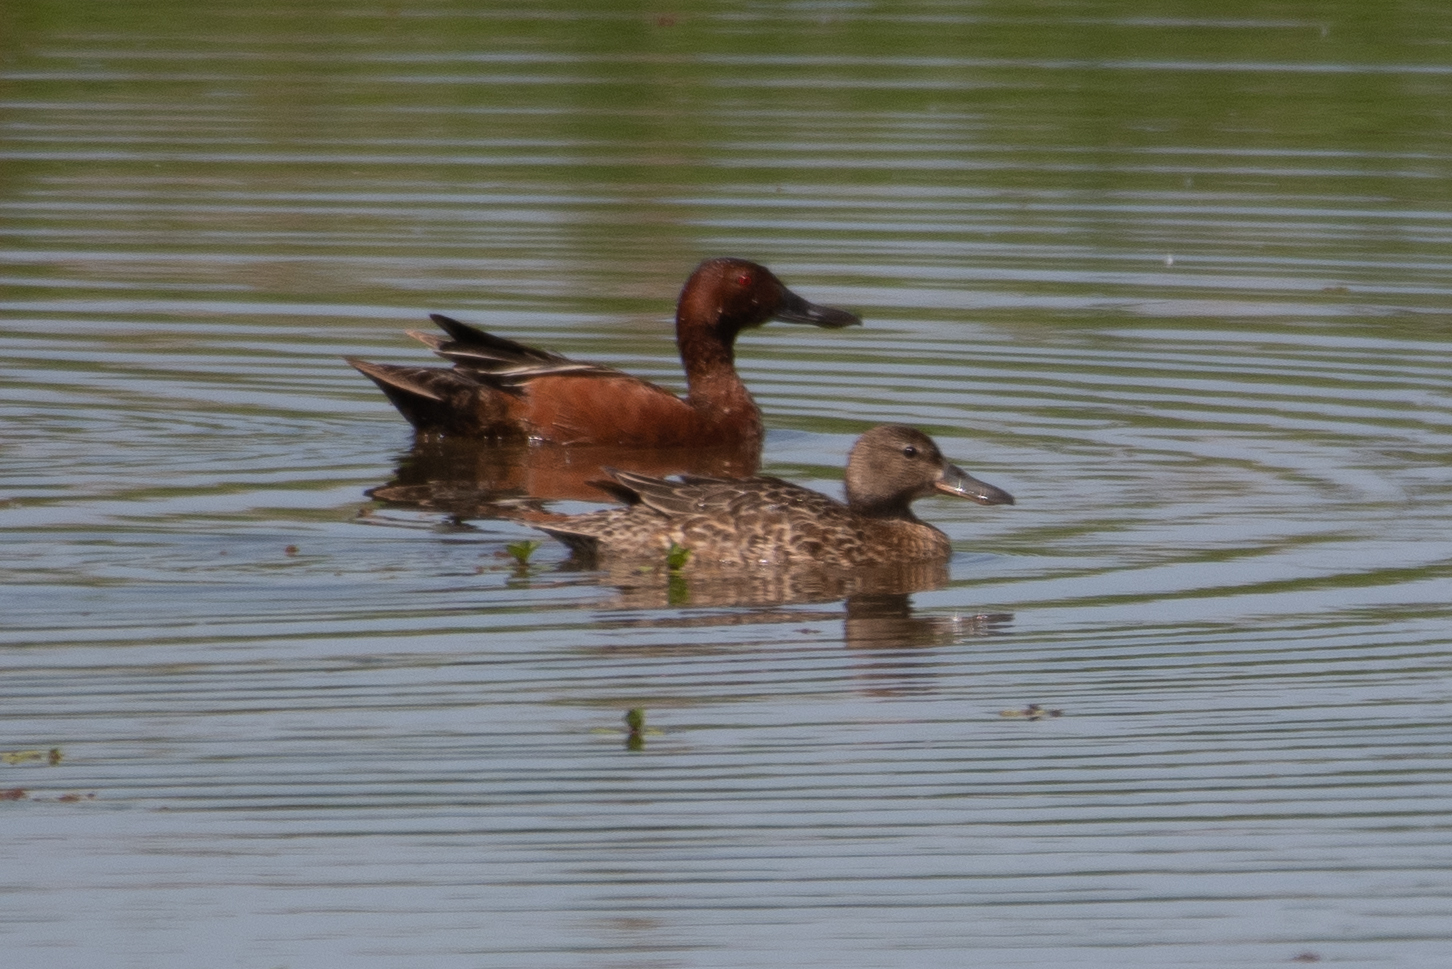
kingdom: Animalia
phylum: Chordata
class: Aves
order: Anseriformes
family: Anatidae
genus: Spatula
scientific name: Spatula cyanoptera
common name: Cinnamon teal
